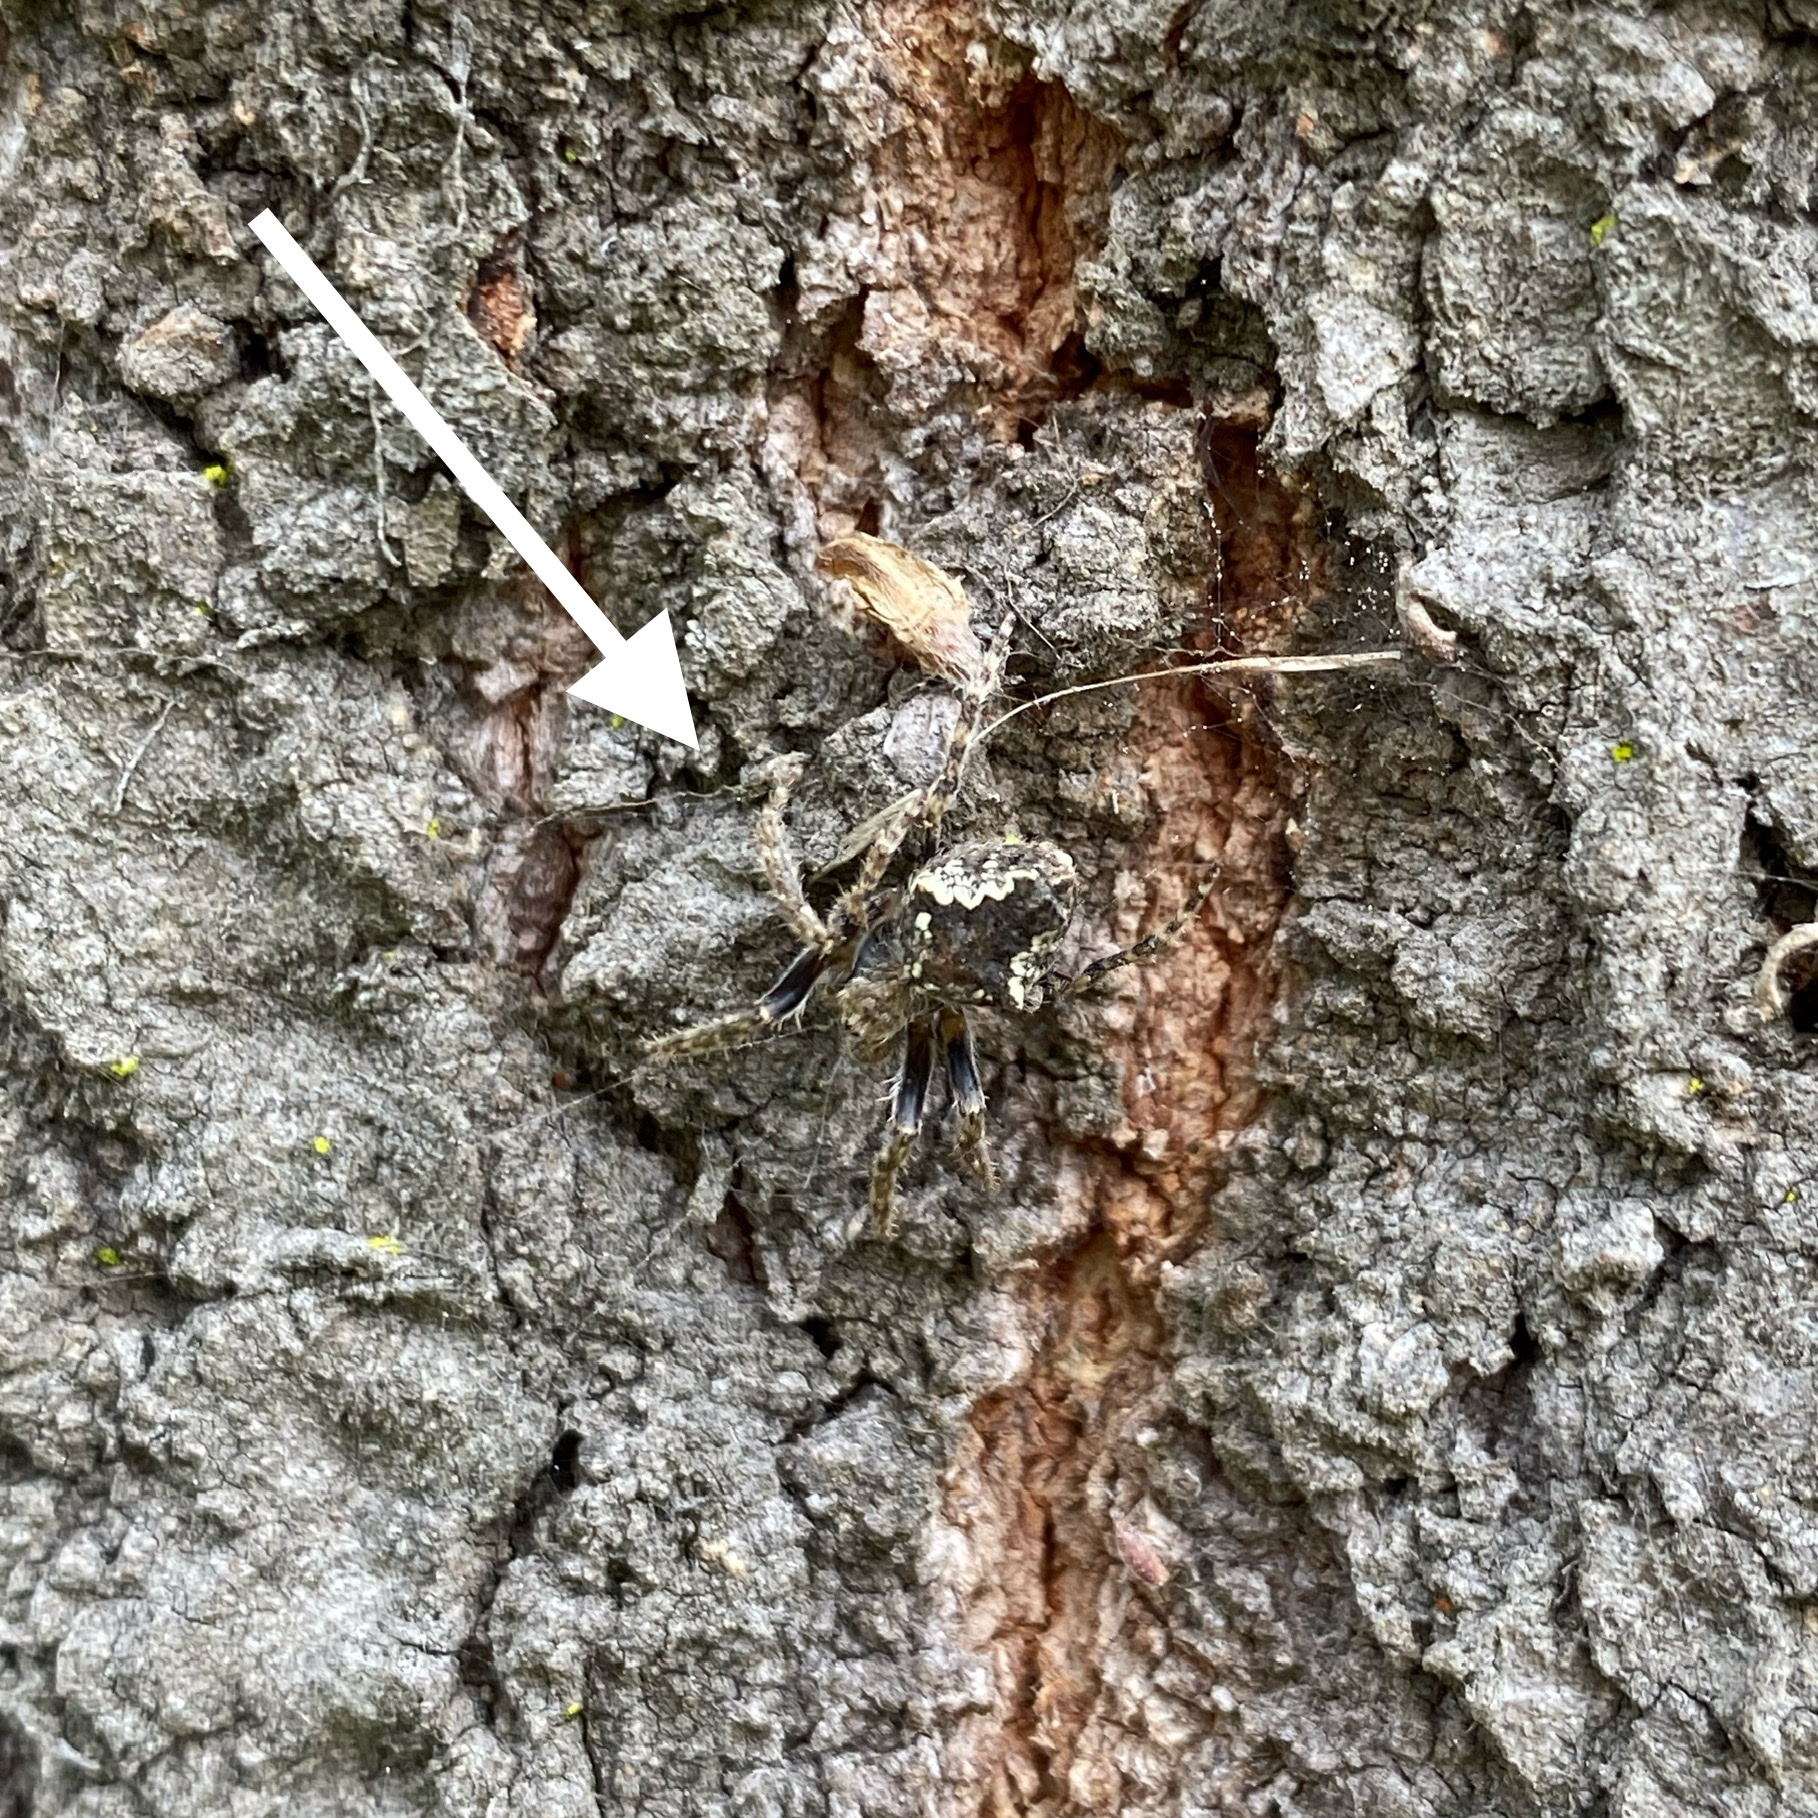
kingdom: Animalia
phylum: Arthropoda
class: Arachnida
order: Araneae
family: Araneidae
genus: Eriophora
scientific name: Eriophora pustulosa
